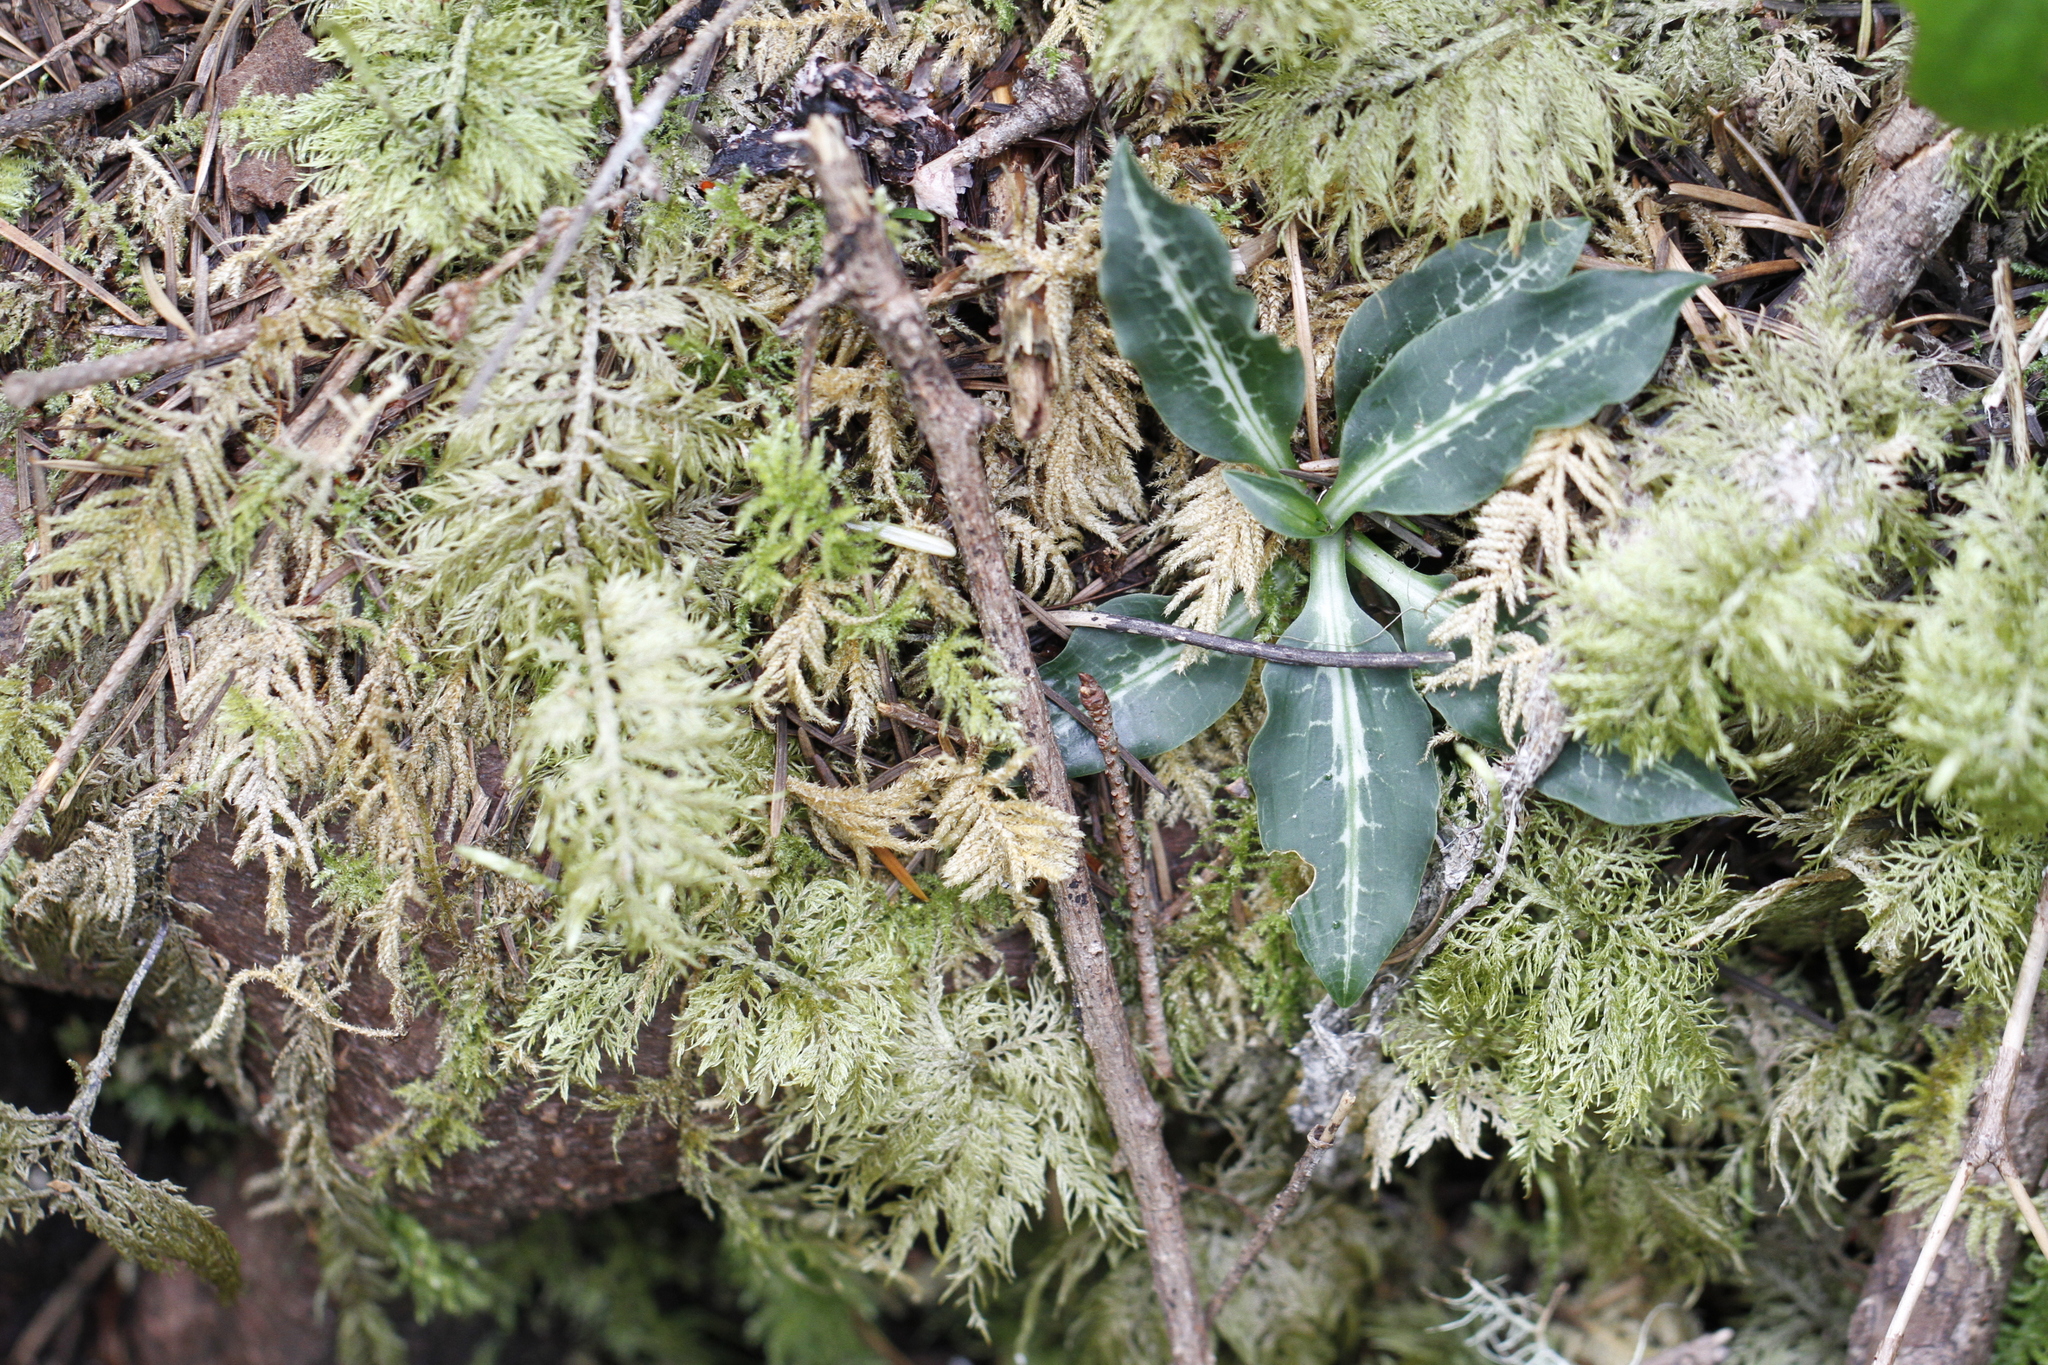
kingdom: Plantae
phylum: Tracheophyta
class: Liliopsida
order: Asparagales
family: Orchidaceae
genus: Goodyera
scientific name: Goodyera oblongifolia
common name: Giant rattlesnake-plantain
